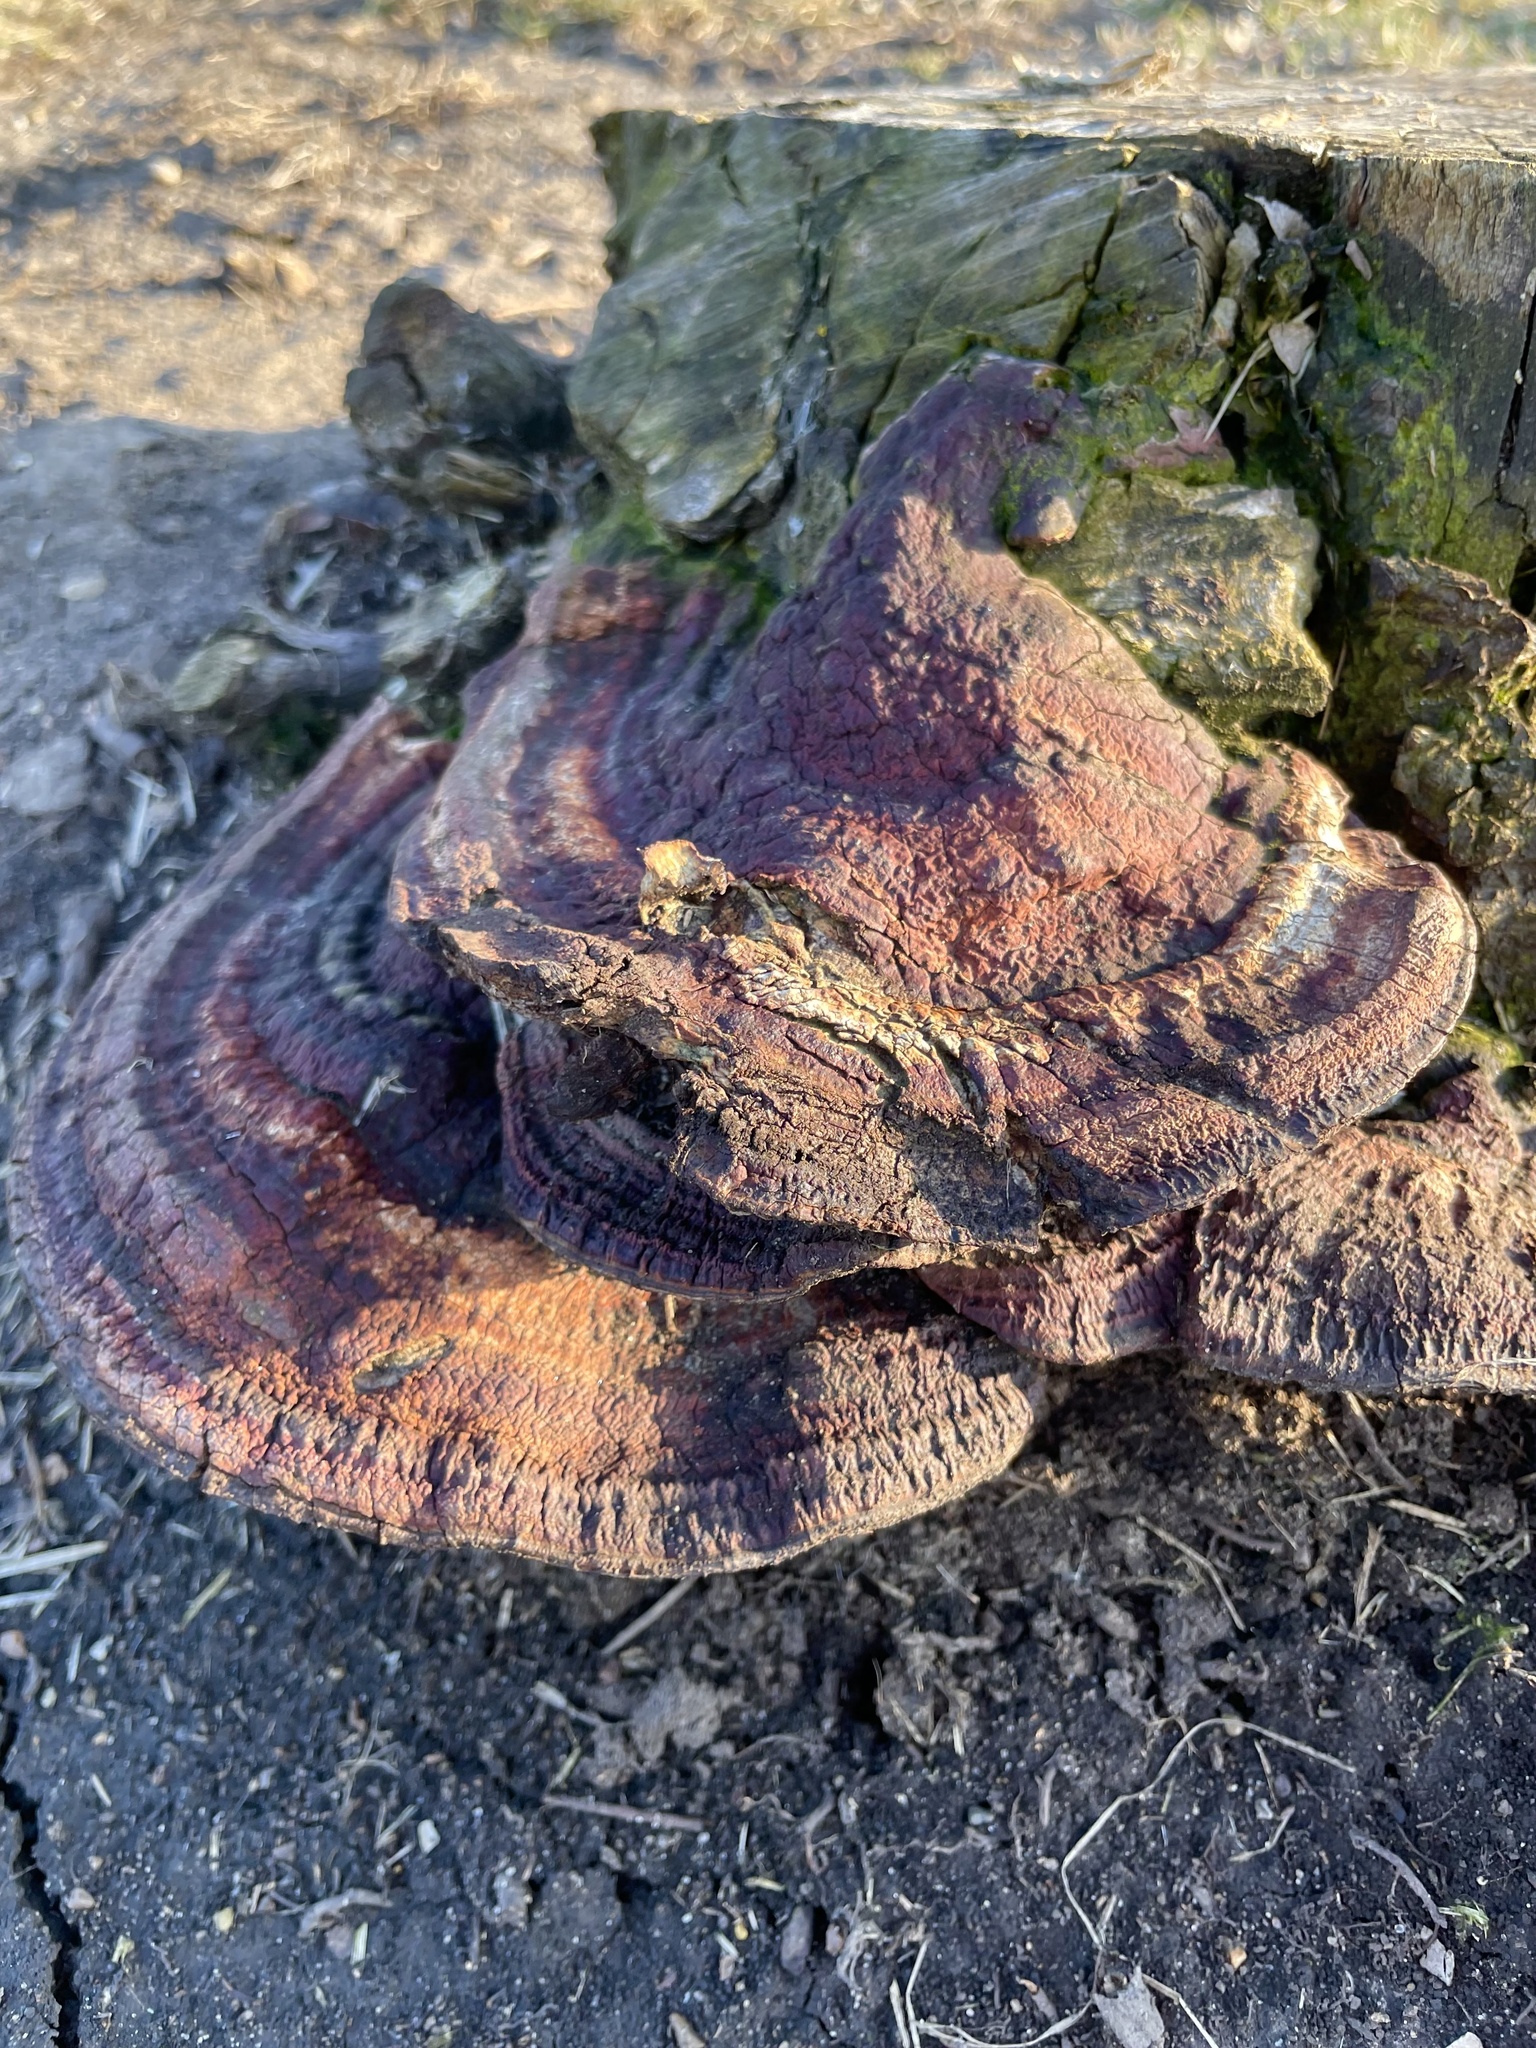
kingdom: Fungi
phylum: Basidiomycota
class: Agaricomycetes
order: Polyporales
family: Polyporaceae
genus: Ganoderma
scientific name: Ganoderma resinaceum
